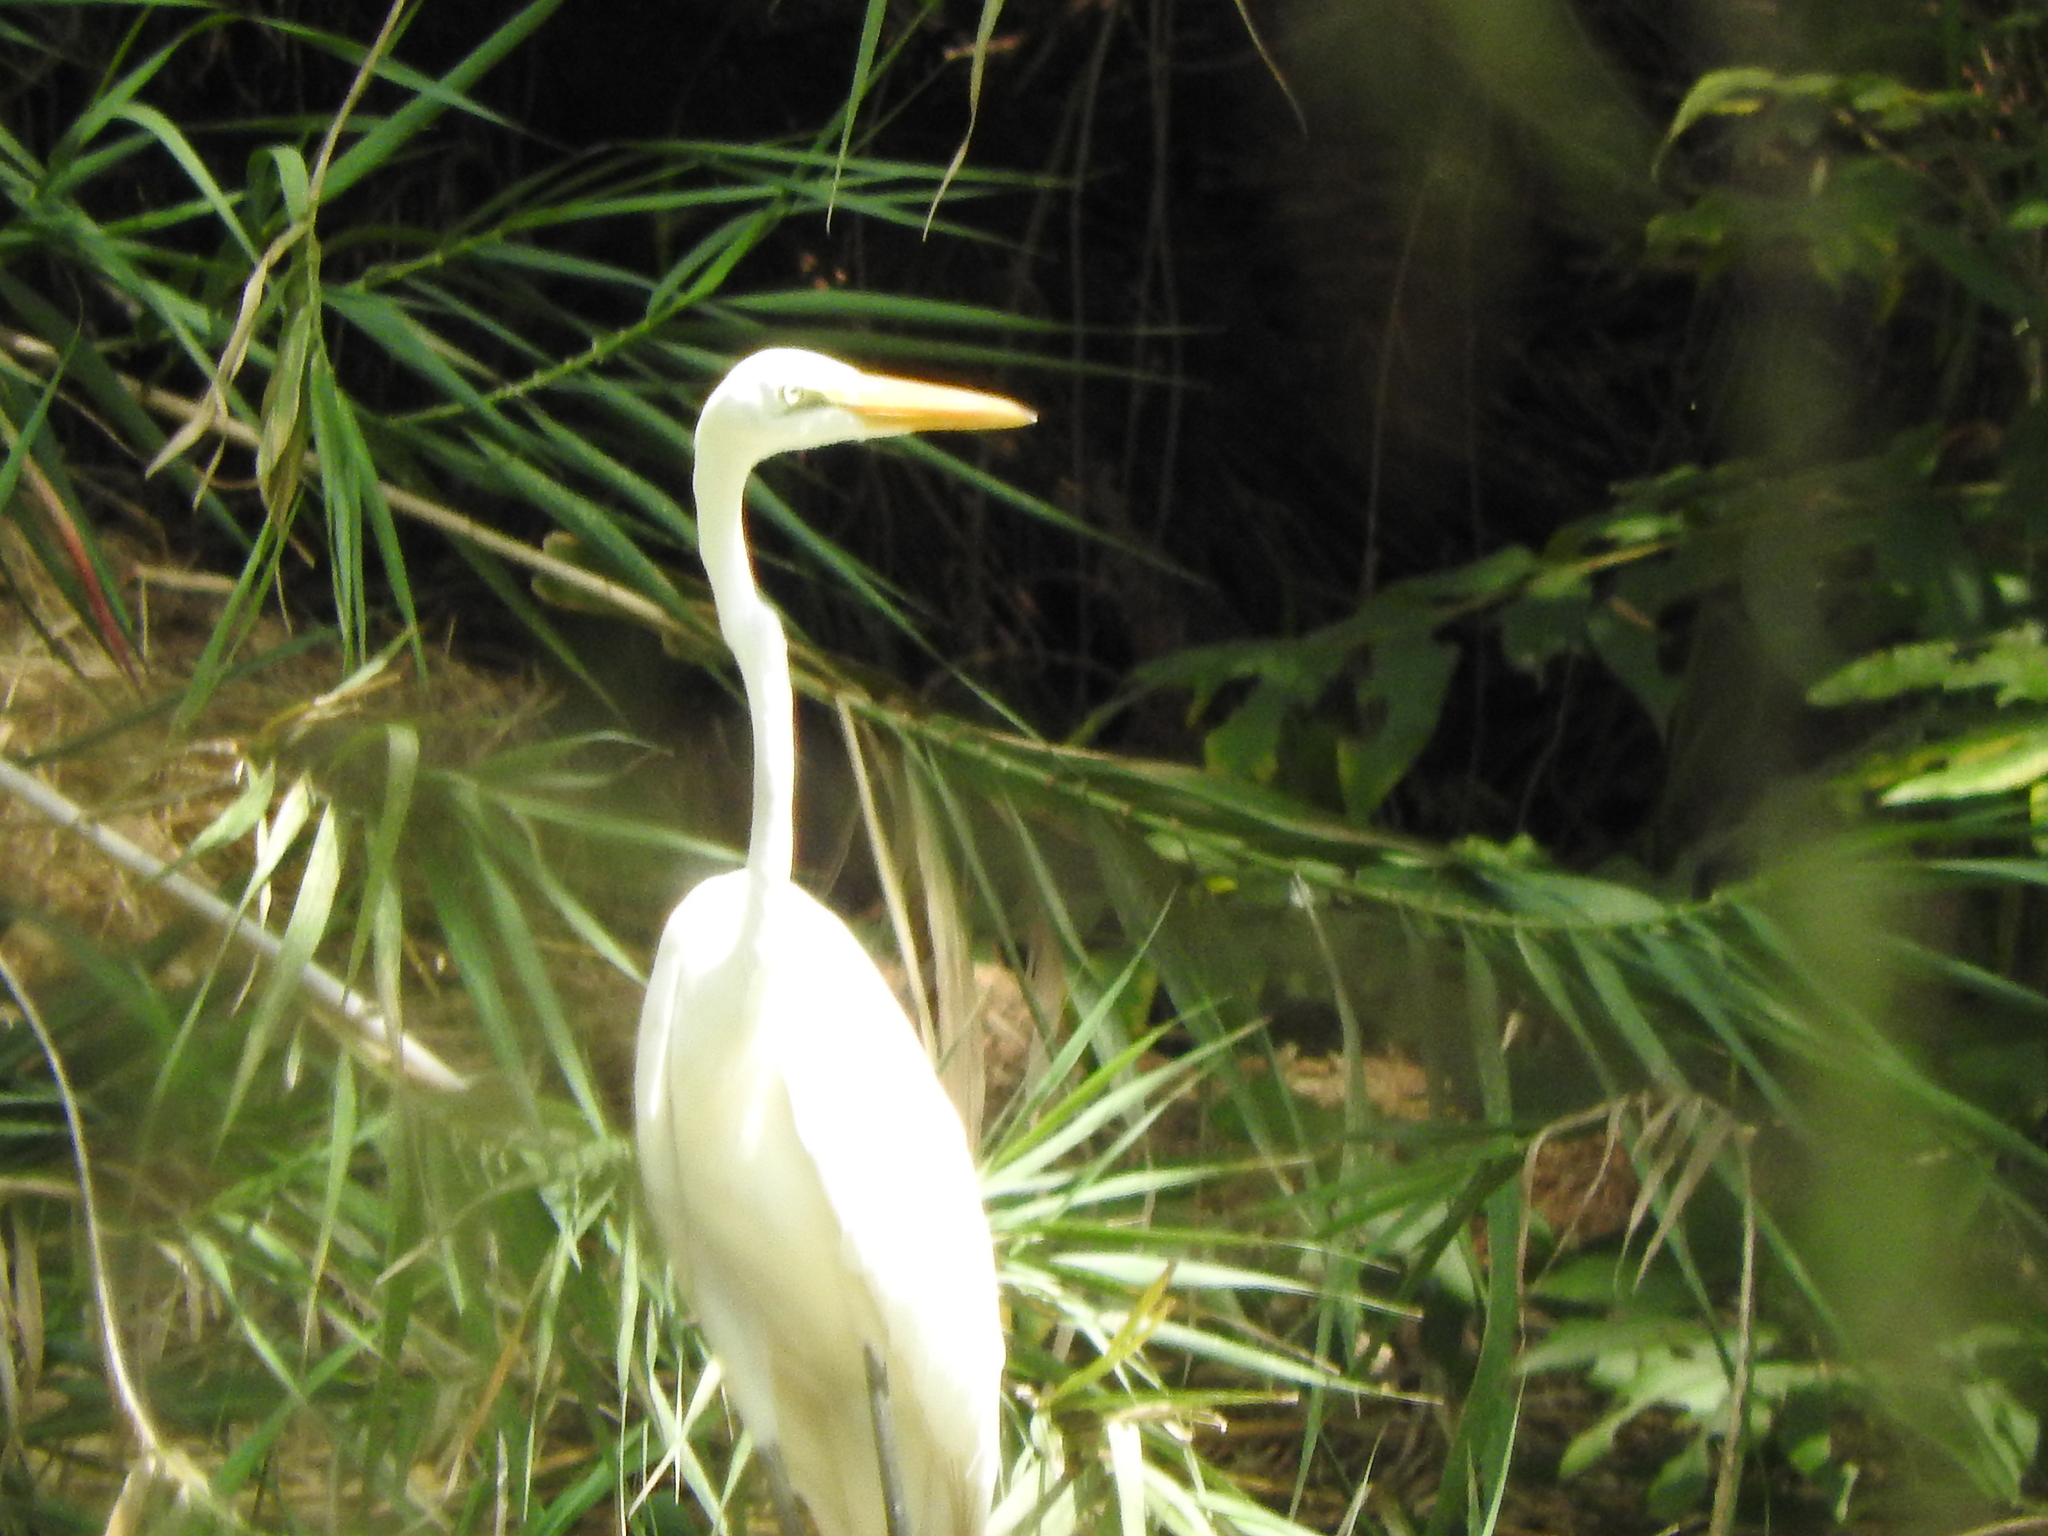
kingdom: Animalia
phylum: Chordata
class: Aves
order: Pelecaniformes
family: Ardeidae
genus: Ardea
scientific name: Ardea alba
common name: Great egret
